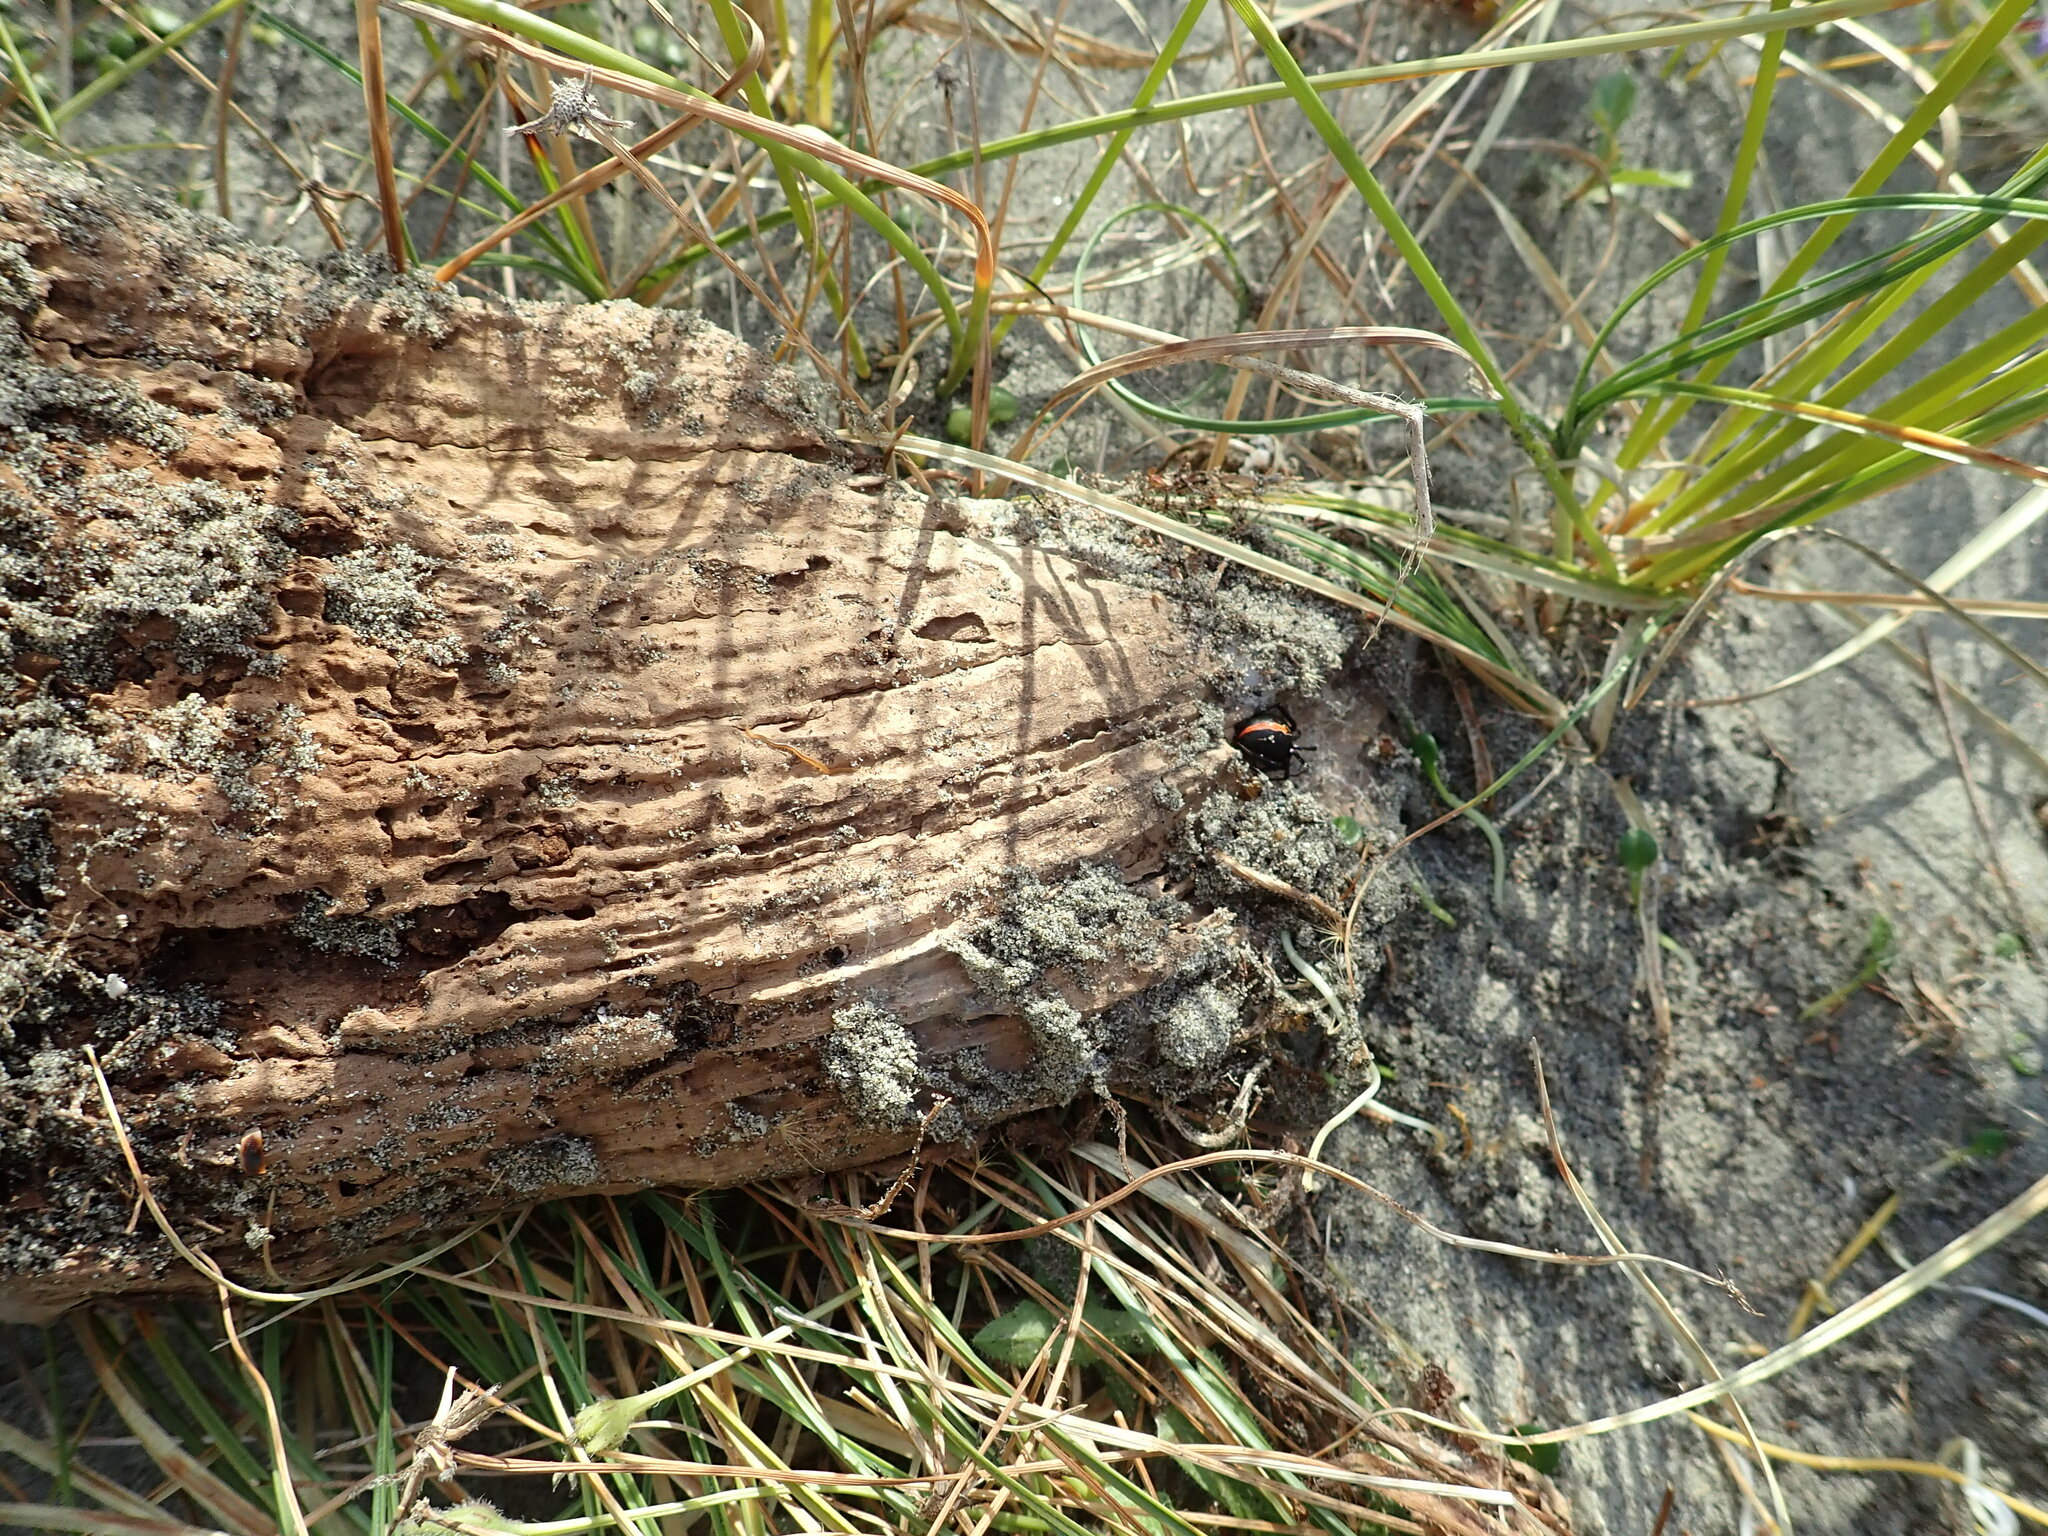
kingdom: Animalia
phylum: Arthropoda
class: Arachnida
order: Araneae
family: Theridiidae
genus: Latrodectus
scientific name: Latrodectus katipo
